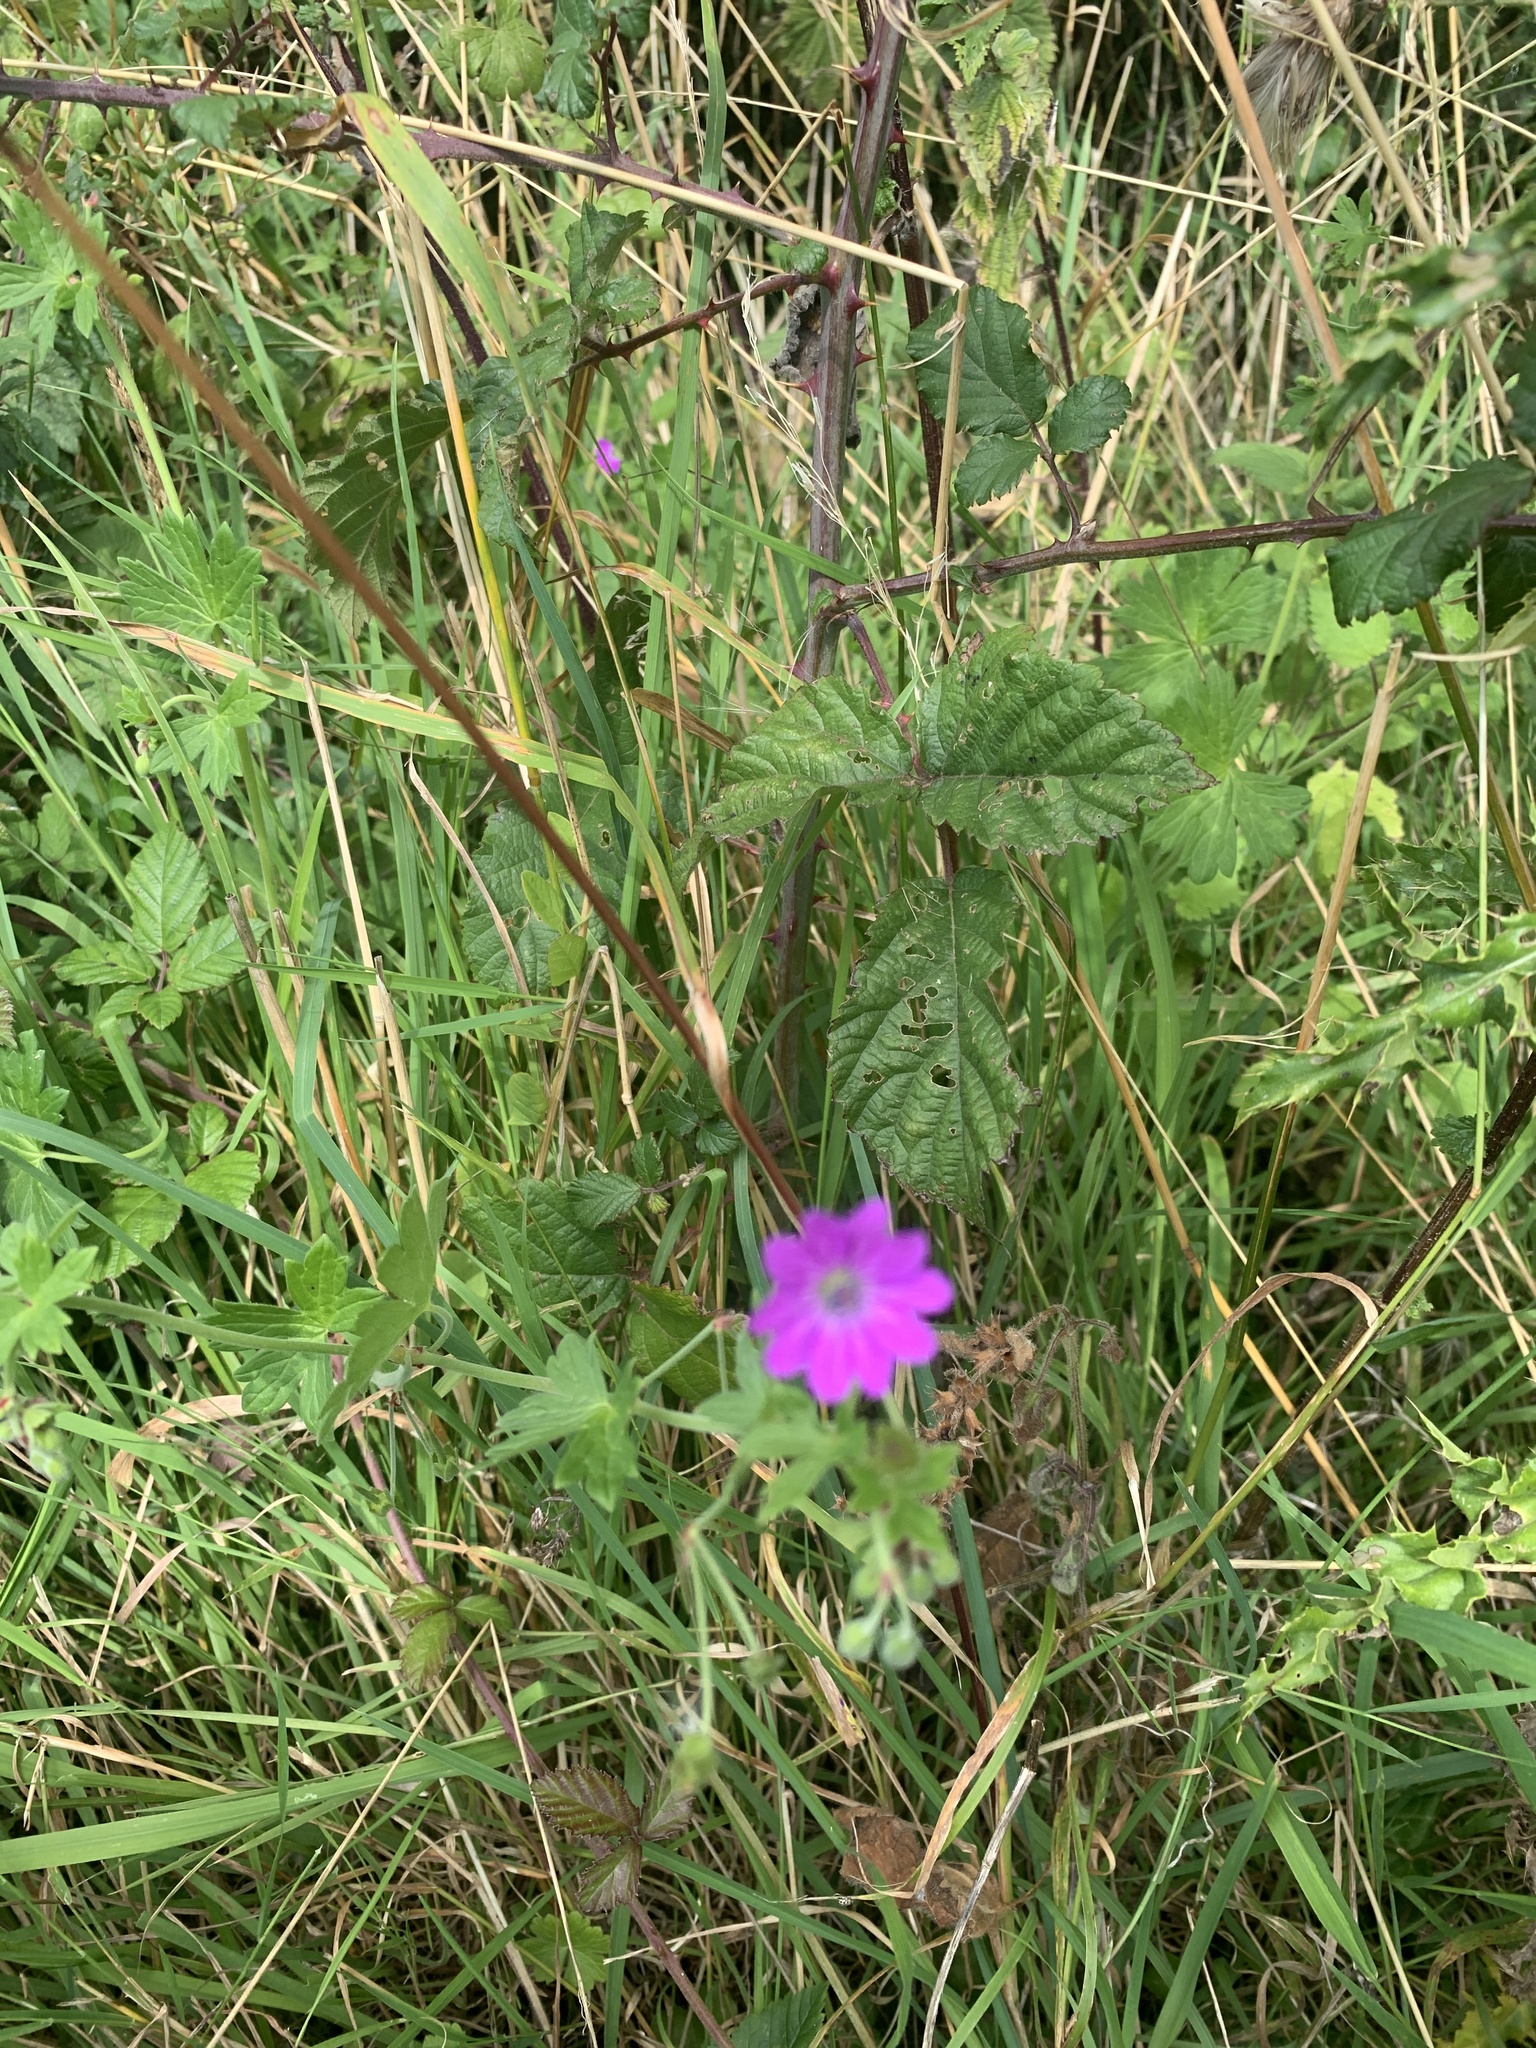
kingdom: Plantae
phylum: Tracheophyta
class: Magnoliopsida
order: Geraniales
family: Geraniaceae
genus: Geranium
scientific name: Geranium pyrenaicum
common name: Hedgerow crane's-bill
